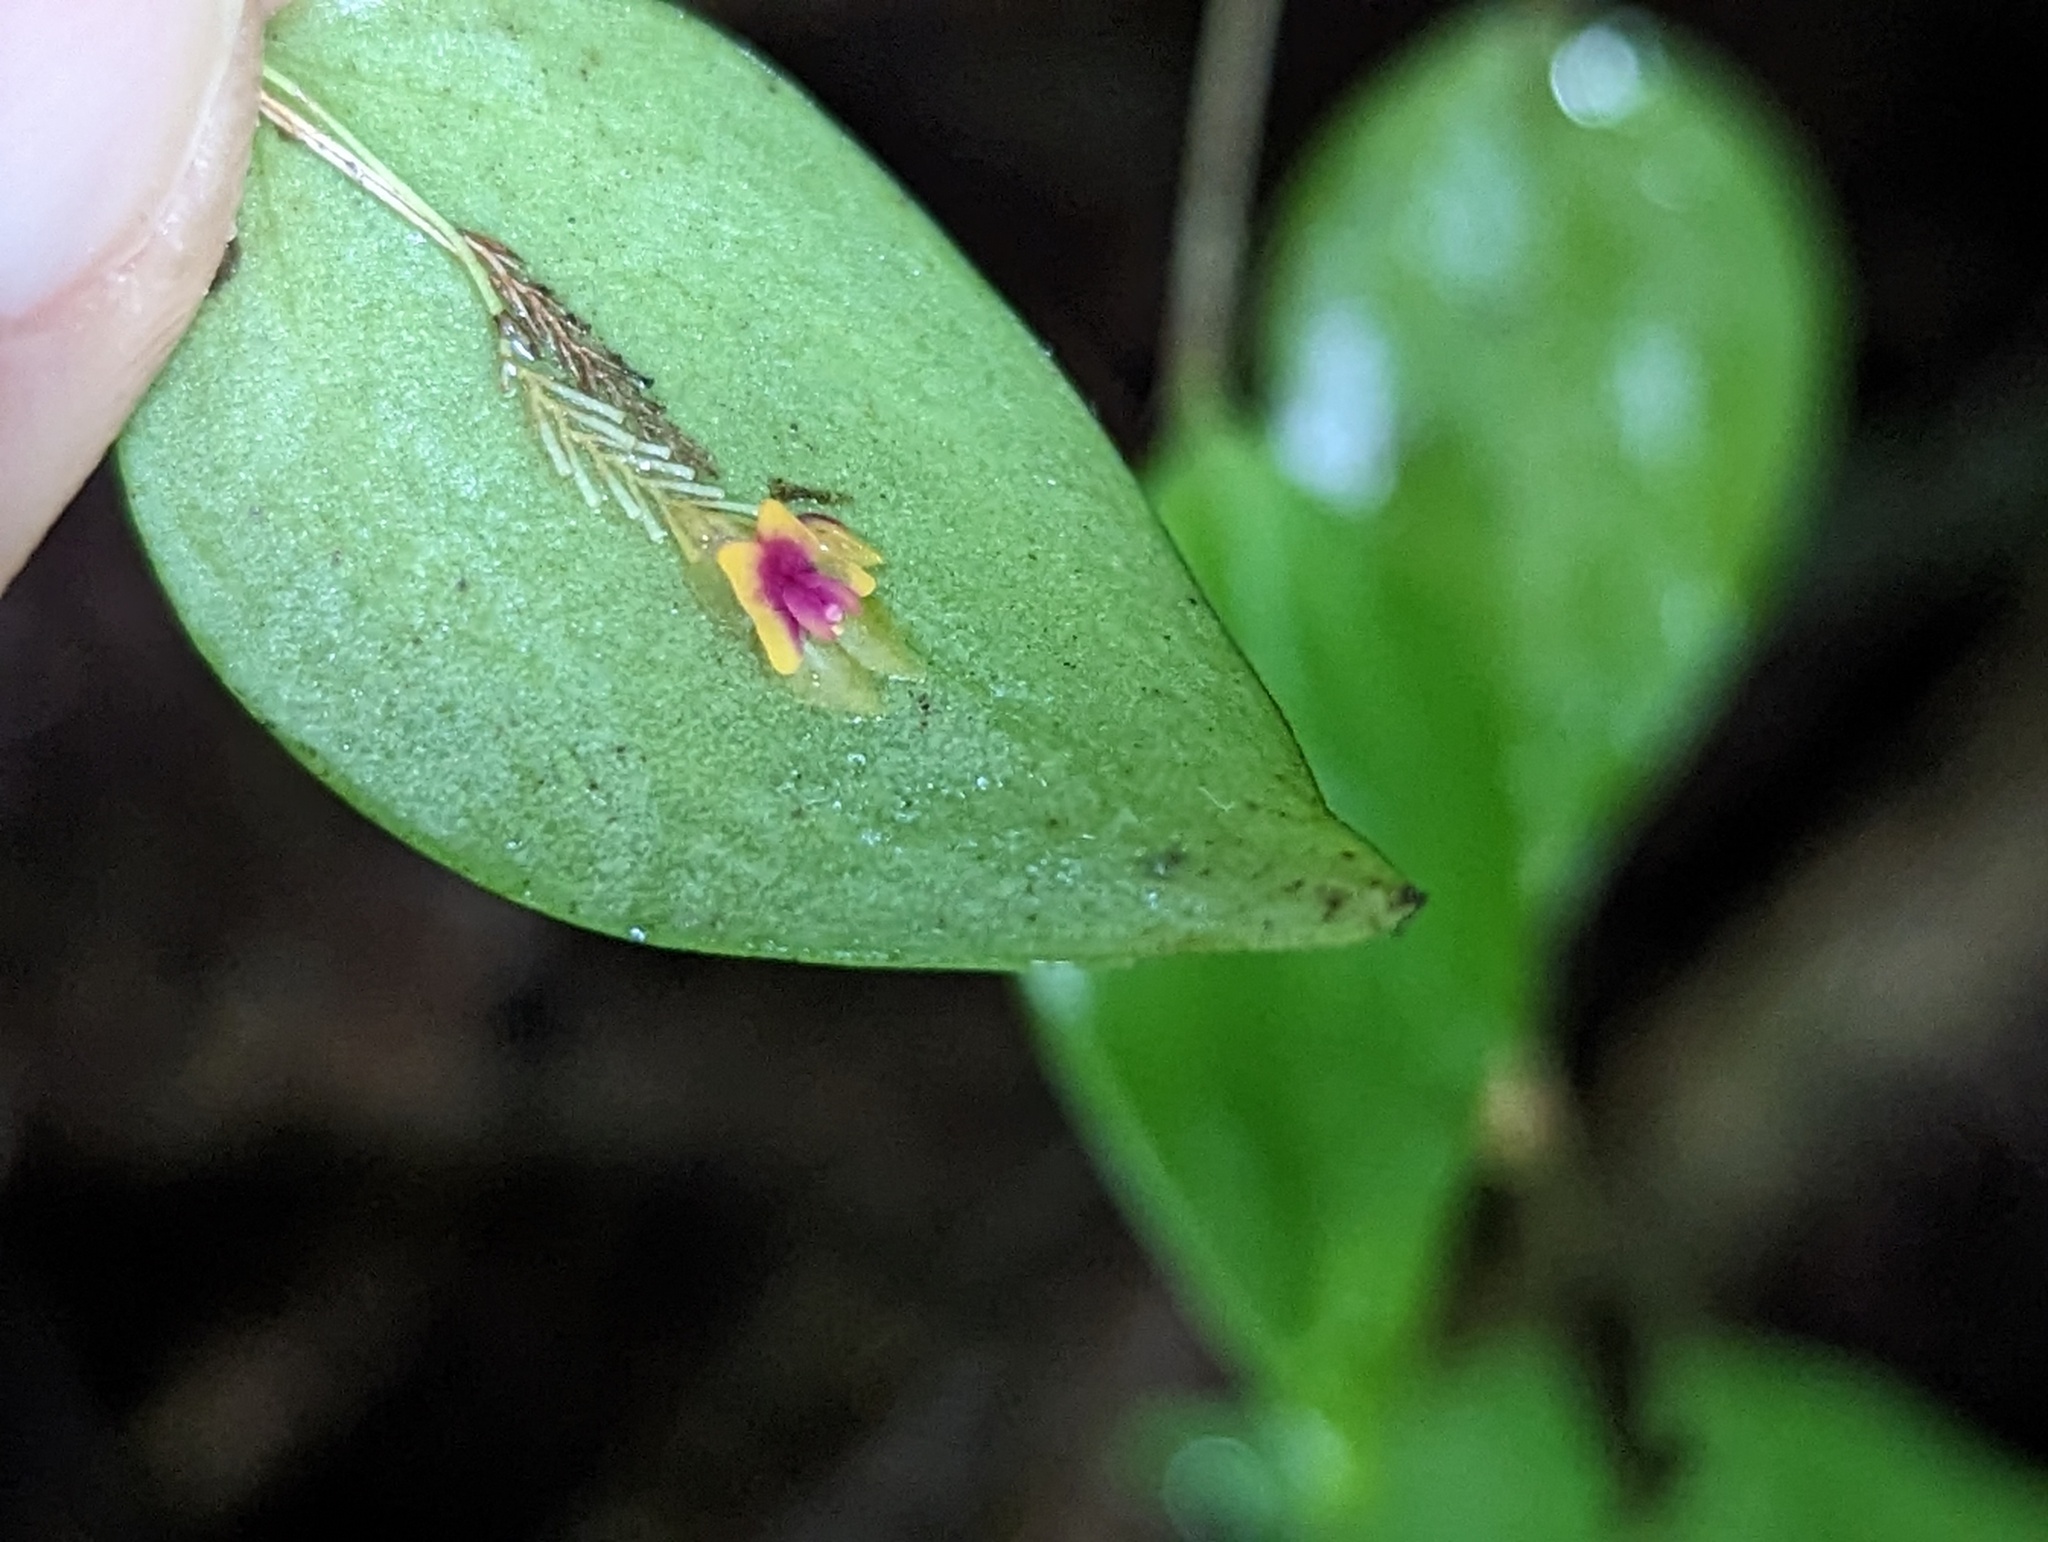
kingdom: Plantae
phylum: Tracheophyta
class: Liliopsida
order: Asparagales
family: Orchidaceae
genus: Lepanthes
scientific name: Lepanthes woodburyana
